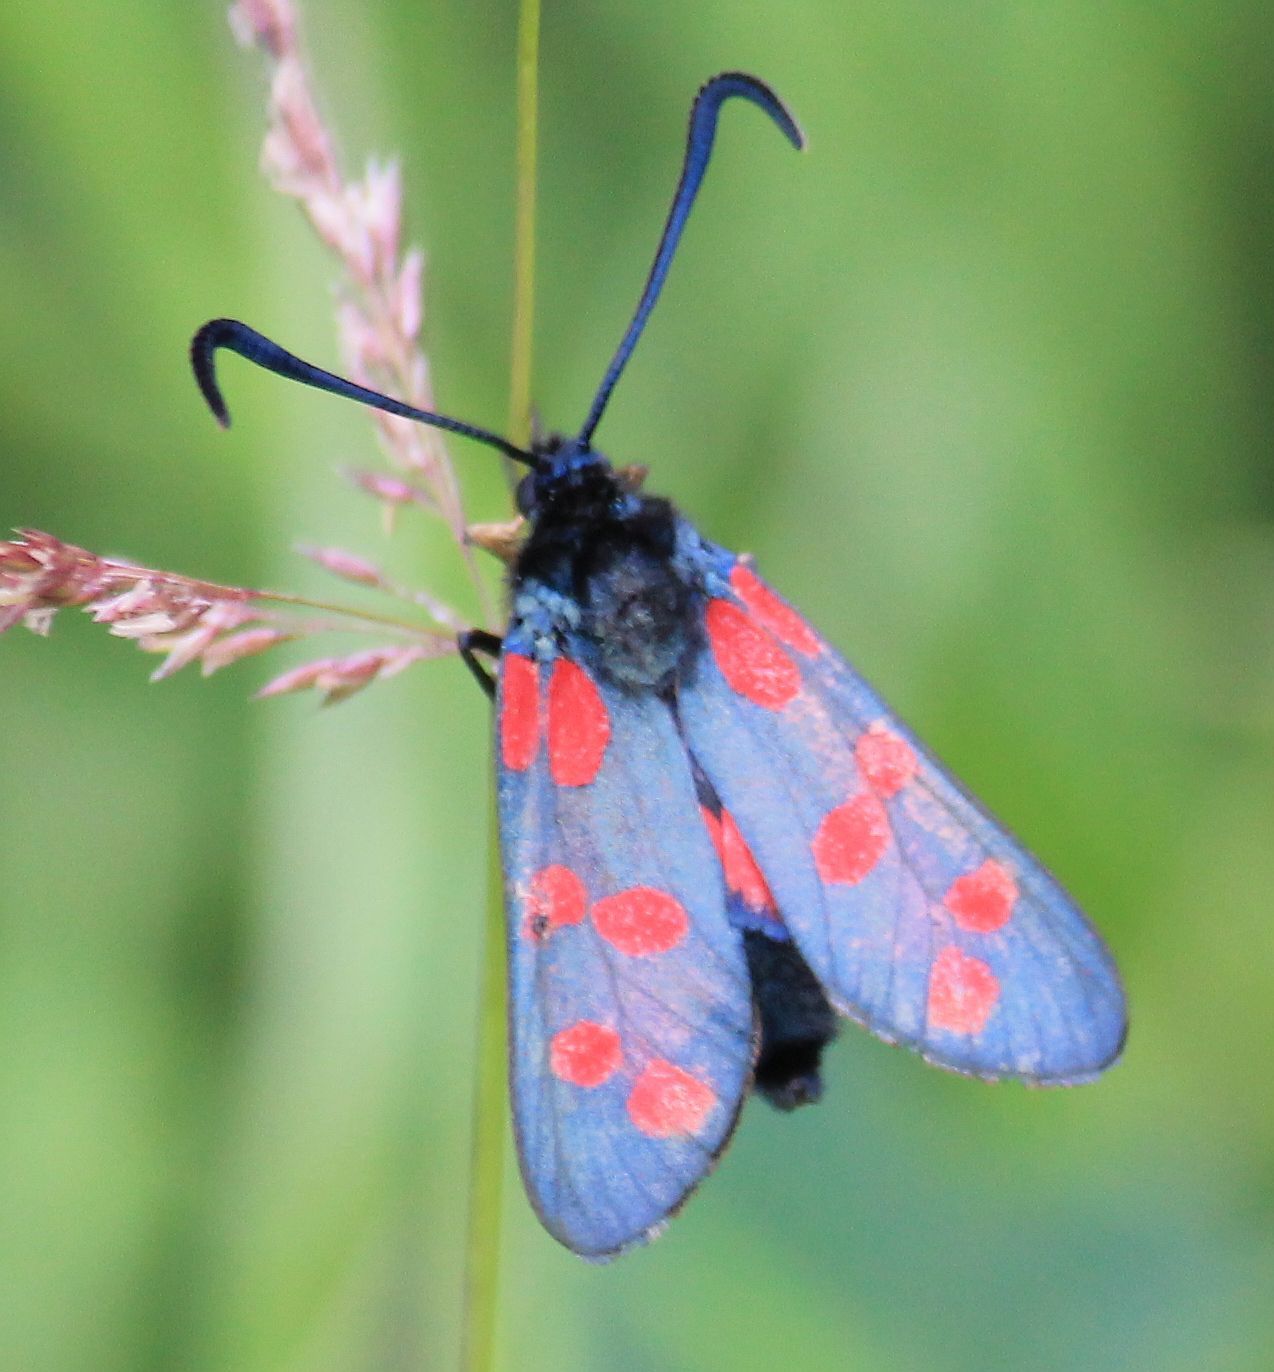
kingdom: Animalia
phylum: Arthropoda
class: Insecta
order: Lepidoptera
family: Zygaenidae
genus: Zygaena
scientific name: Zygaena filipendulae
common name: Six-spot burnet
